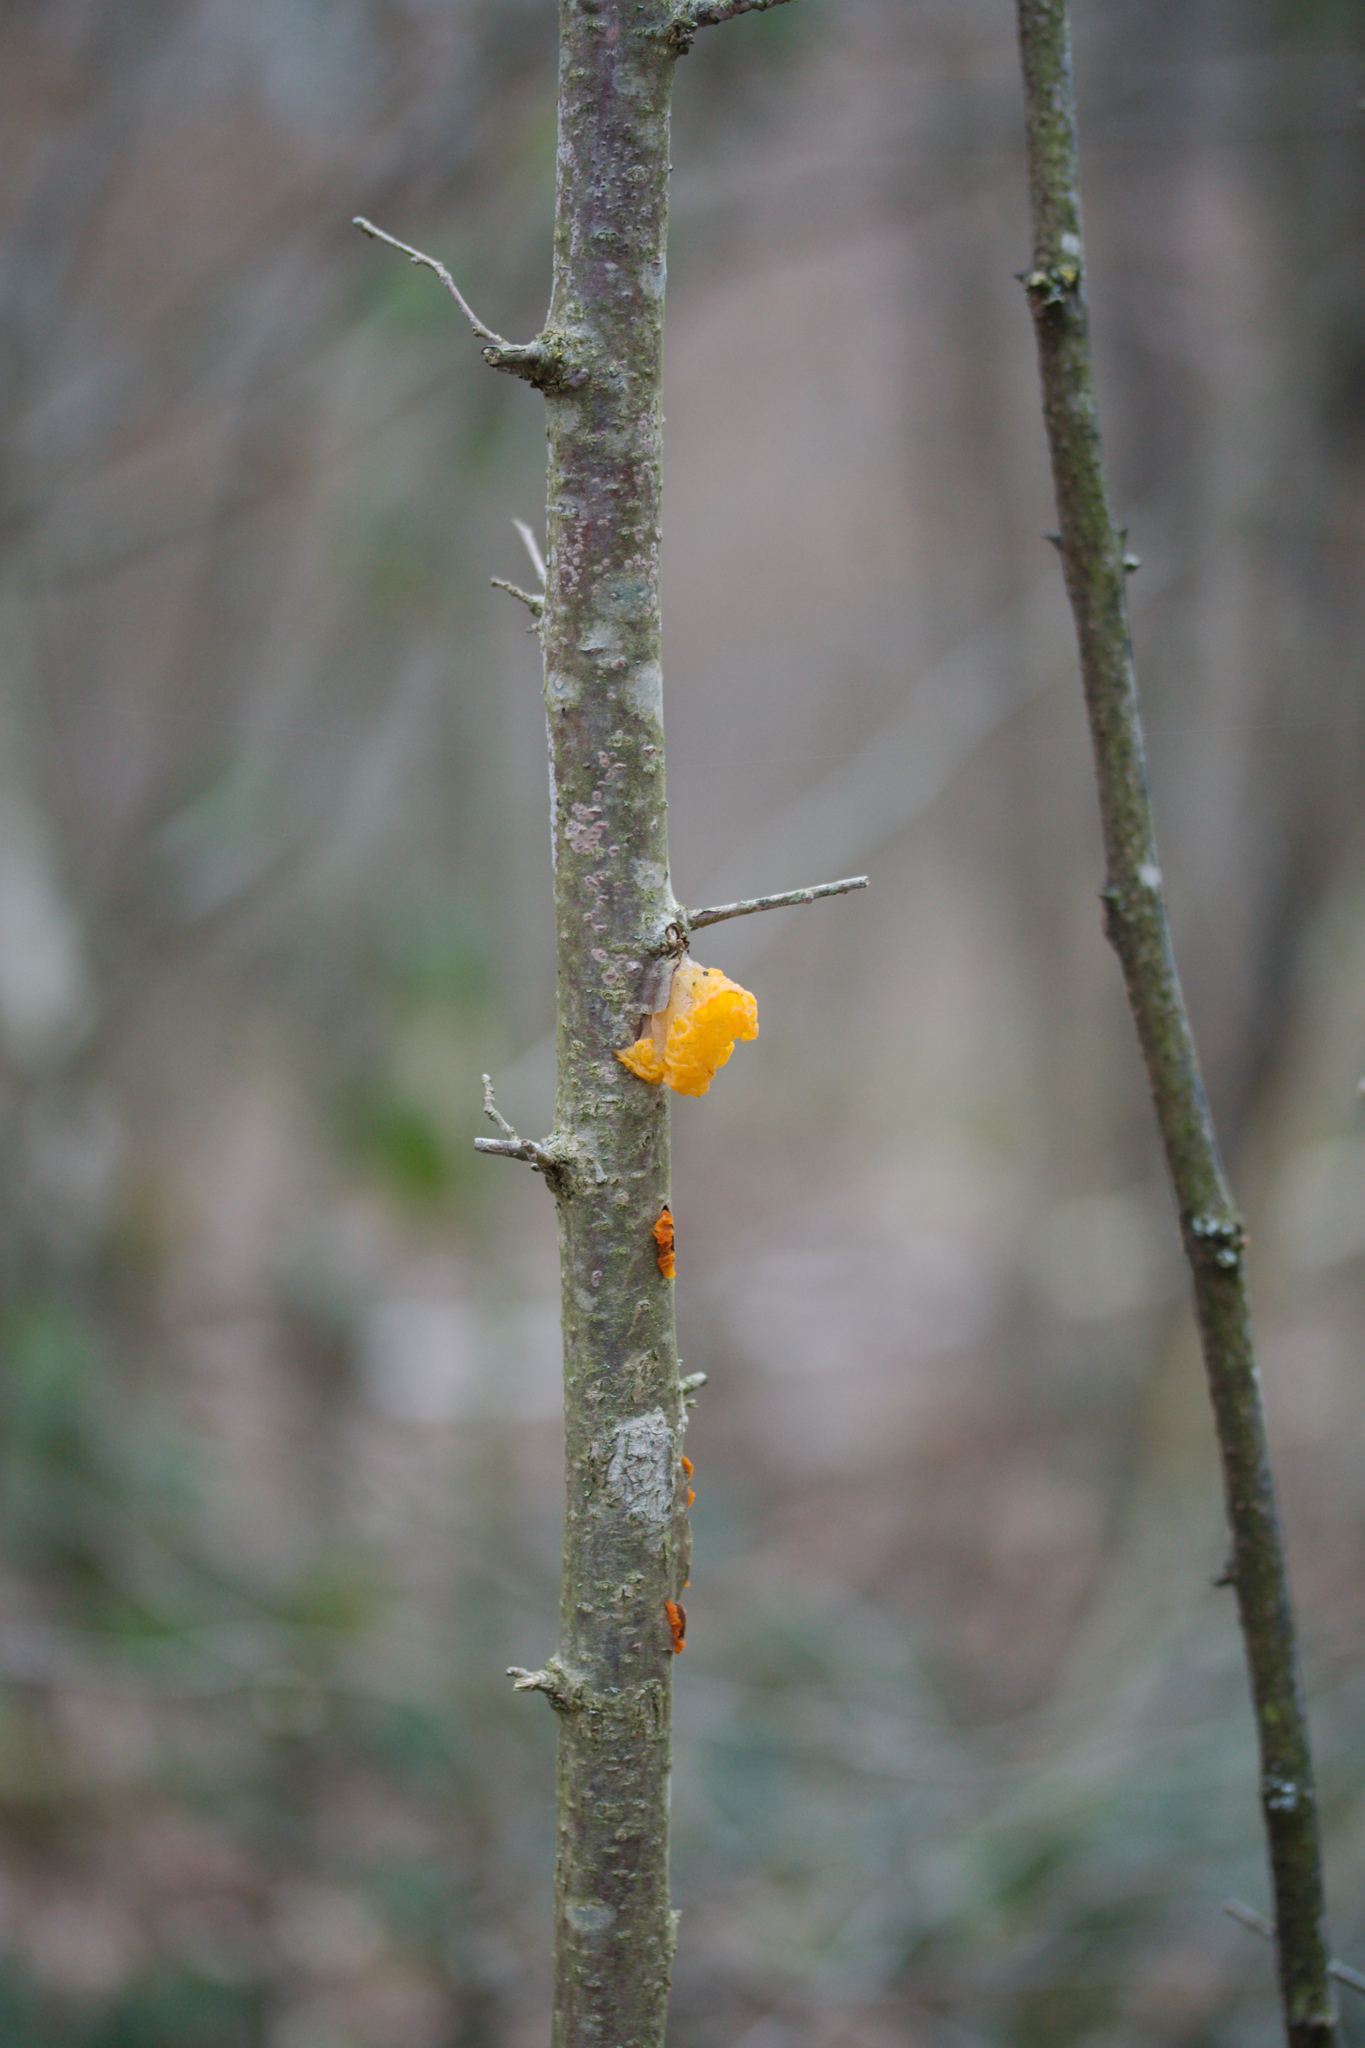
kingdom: Fungi
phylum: Basidiomycota
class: Tremellomycetes
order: Tremellales
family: Tremellaceae
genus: Tremella
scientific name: Tremella mesenterica
